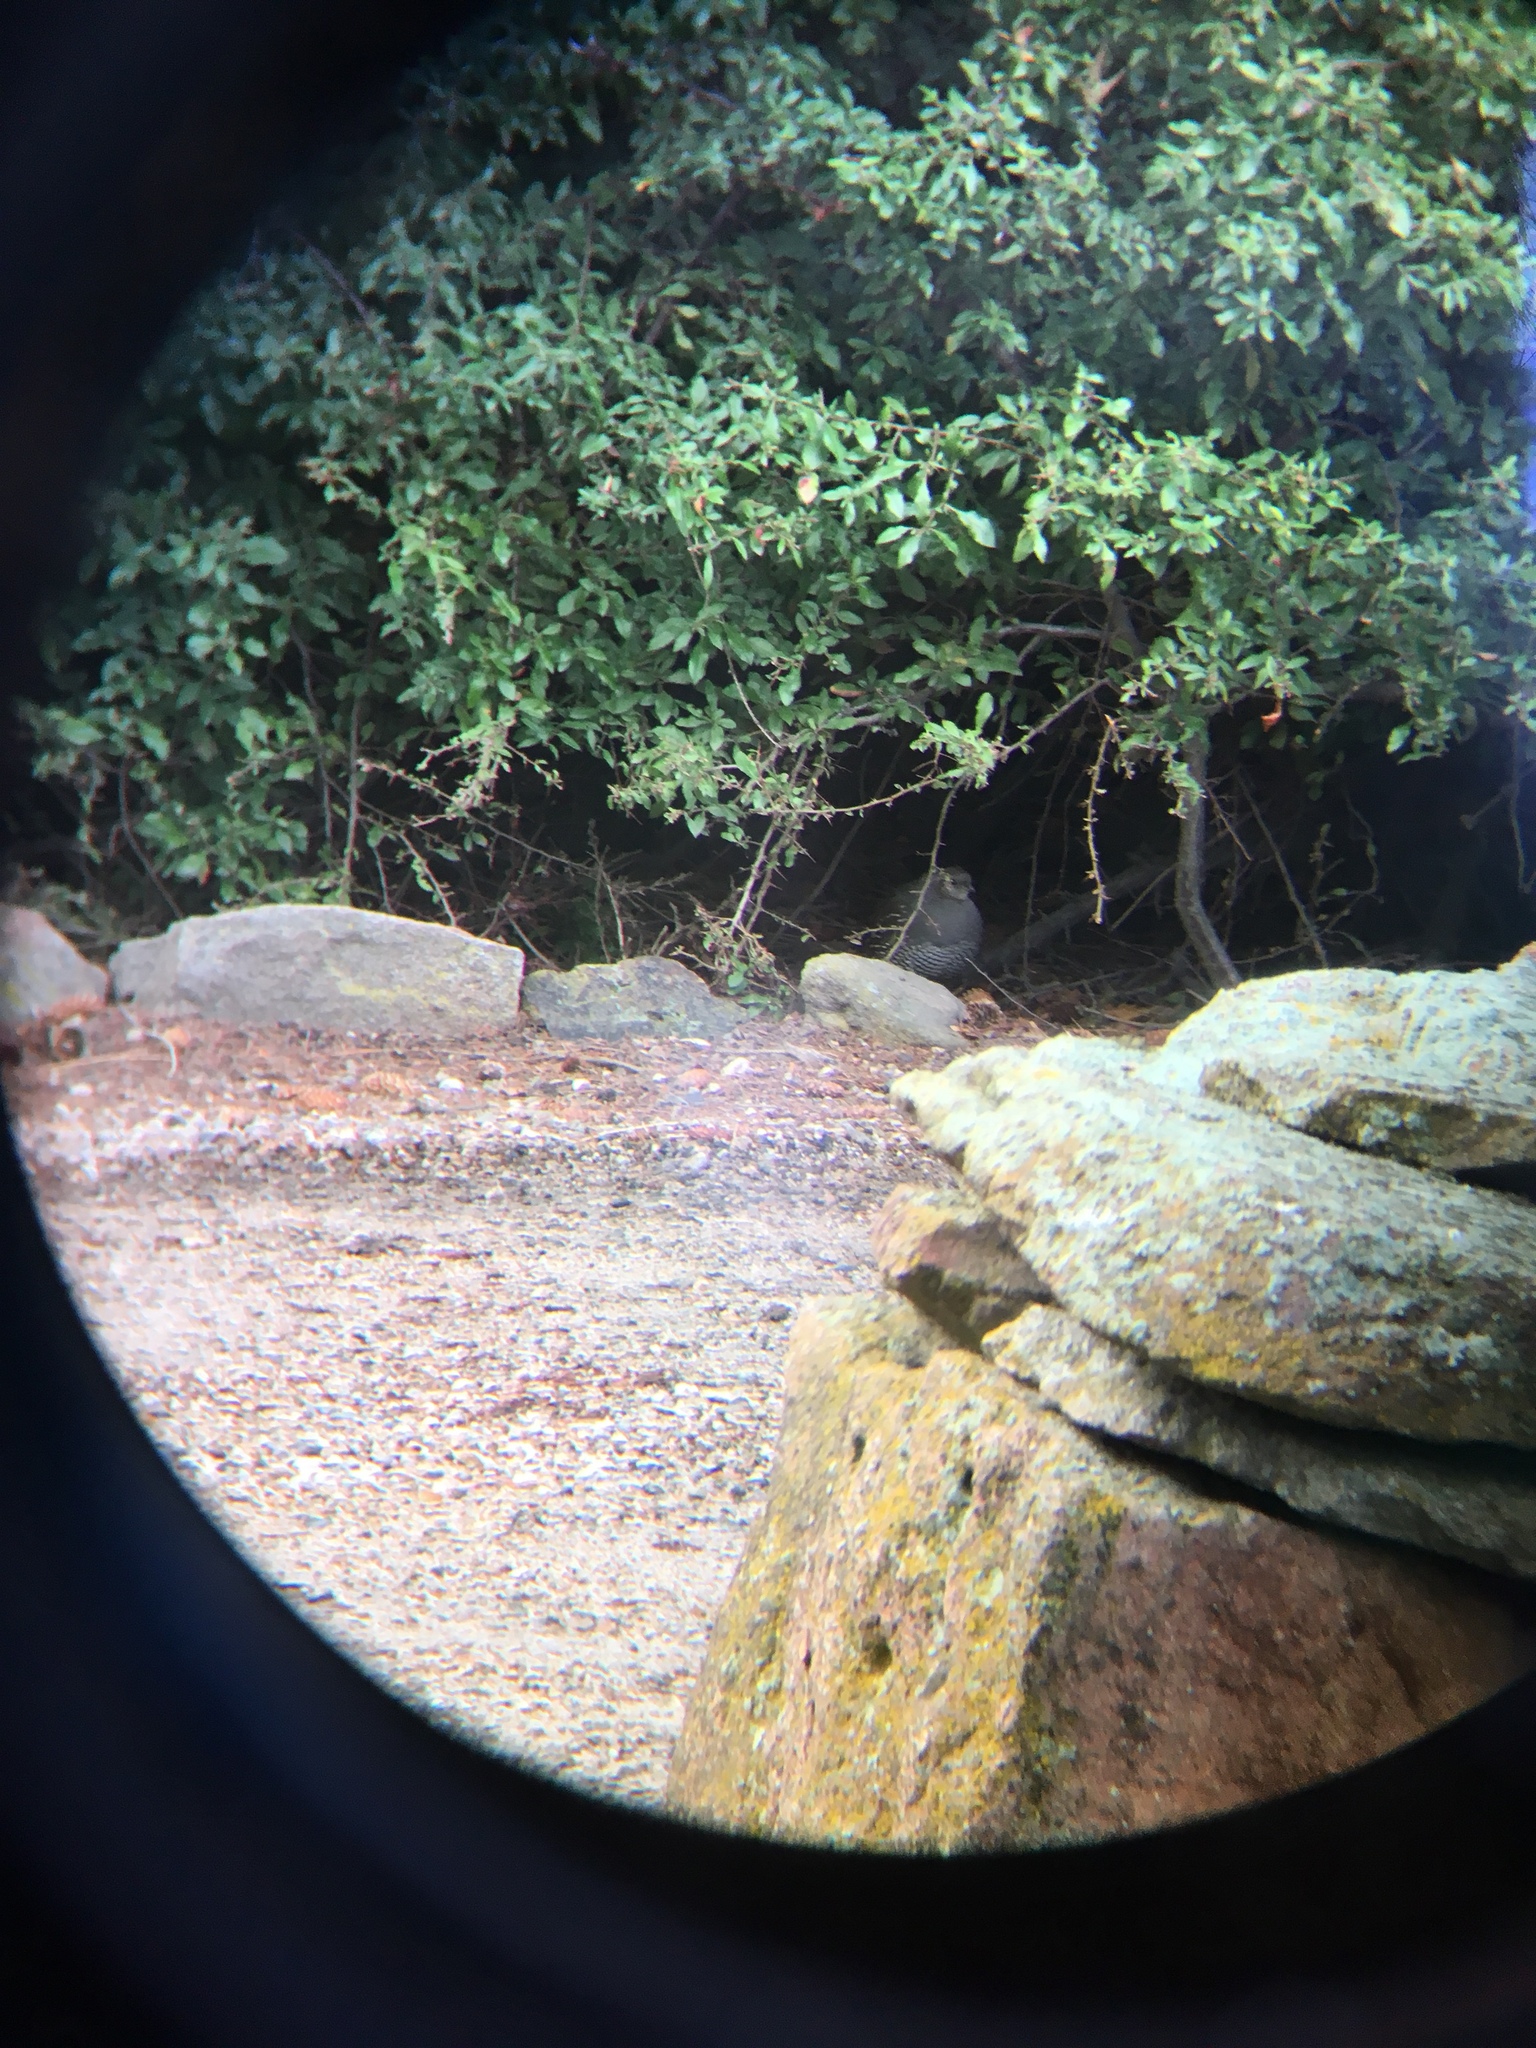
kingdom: Animalia
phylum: Chordata
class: Aves
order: Galliformes
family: Odontophoridae
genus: Callipepla
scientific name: Callipepla californica
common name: California quail
